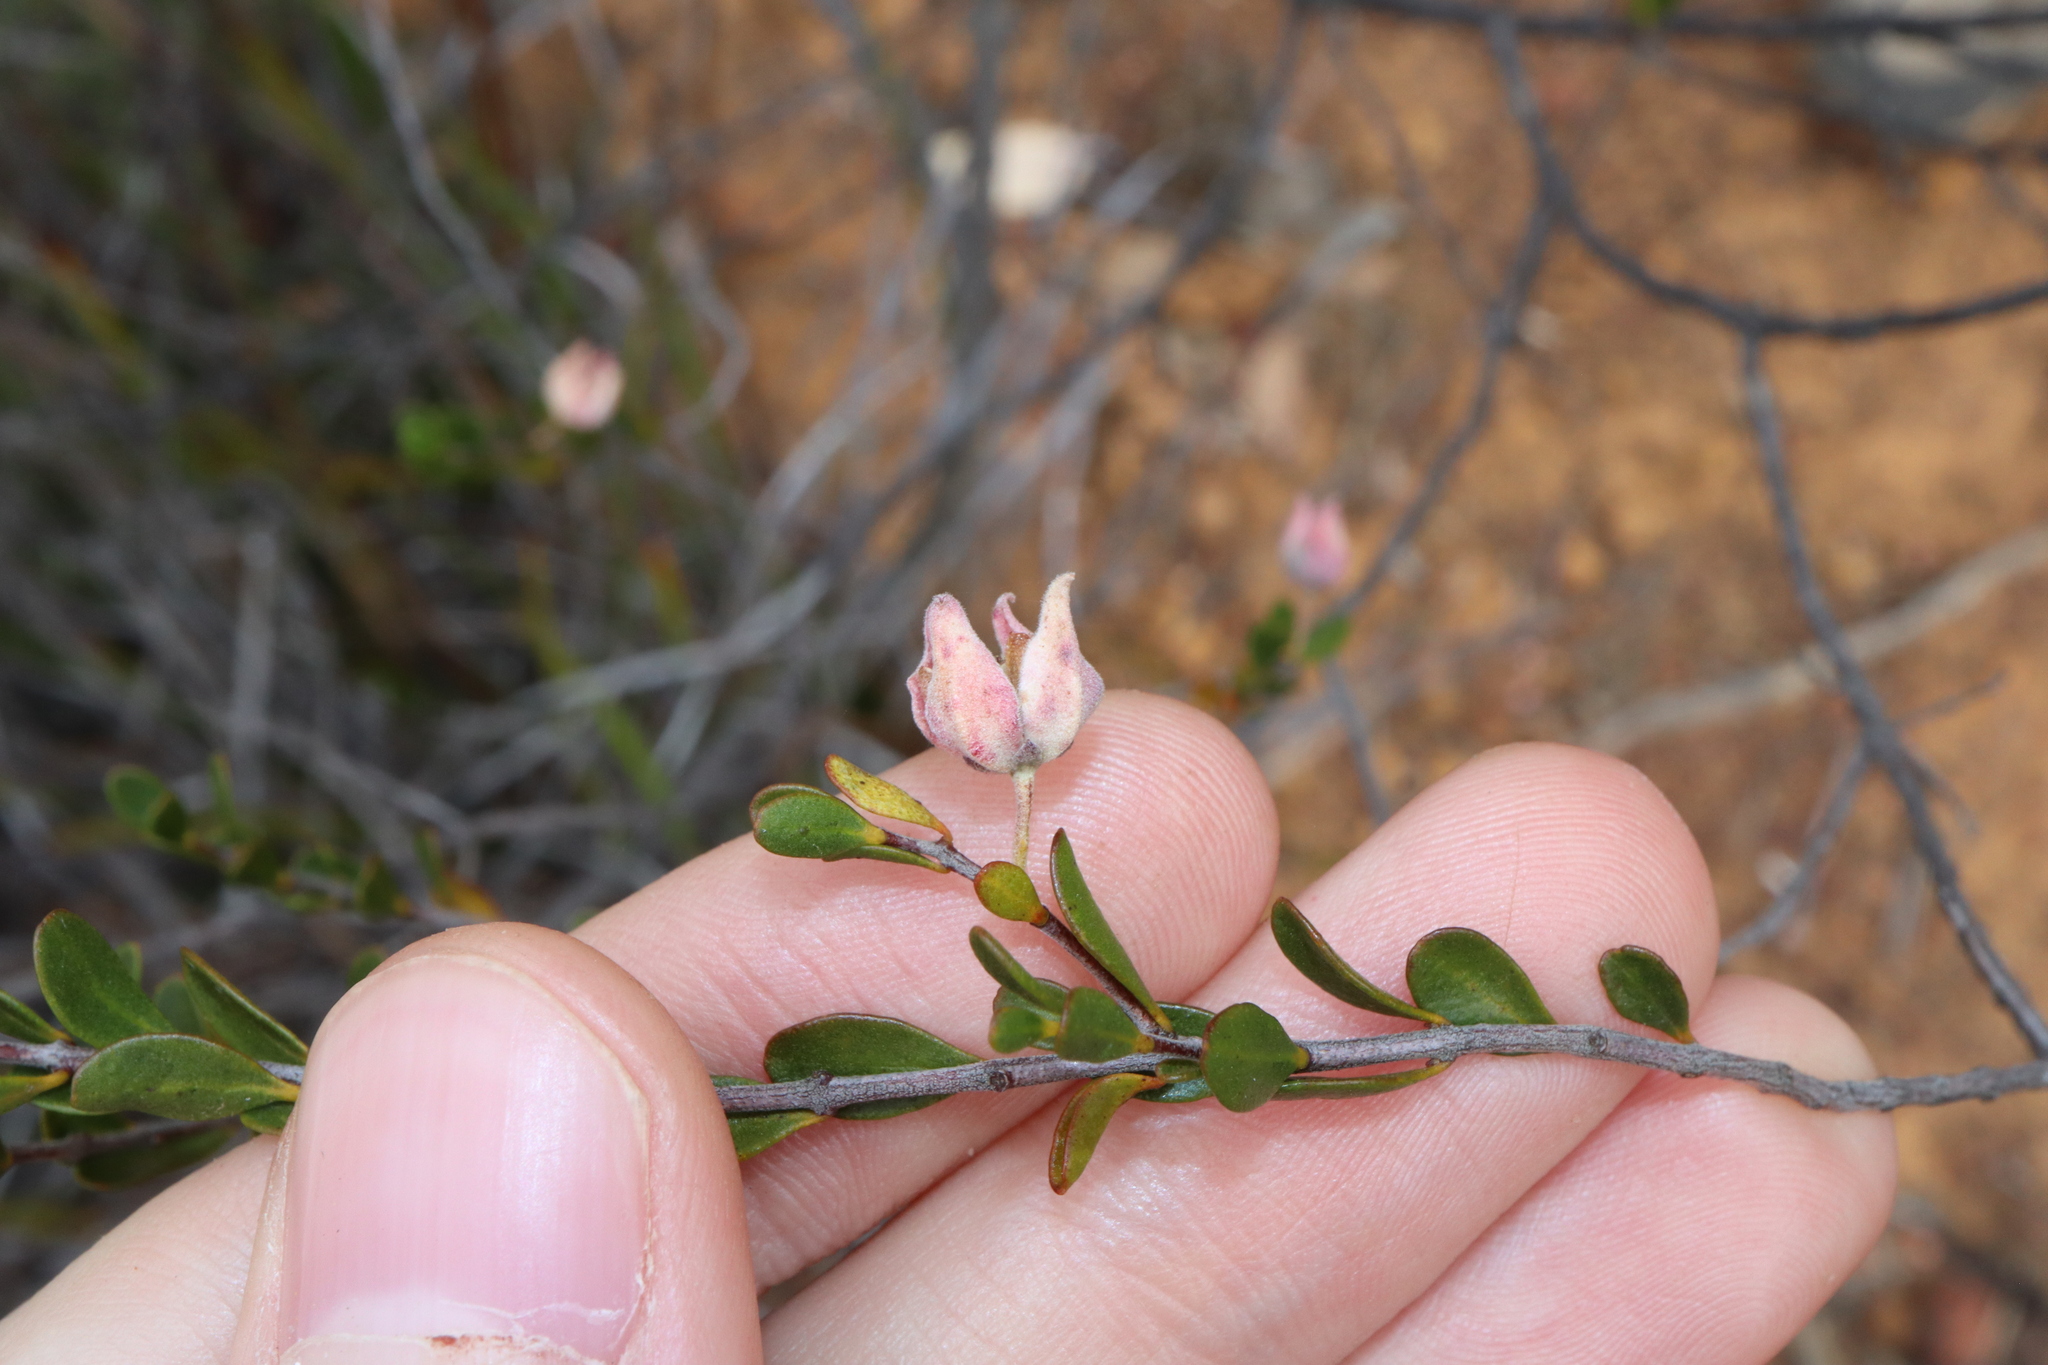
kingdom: Plantae
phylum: Tracheophyta
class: Magnoliopsida
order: Sapindales
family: Rutaceae
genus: Boronia
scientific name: Boronia ternata
